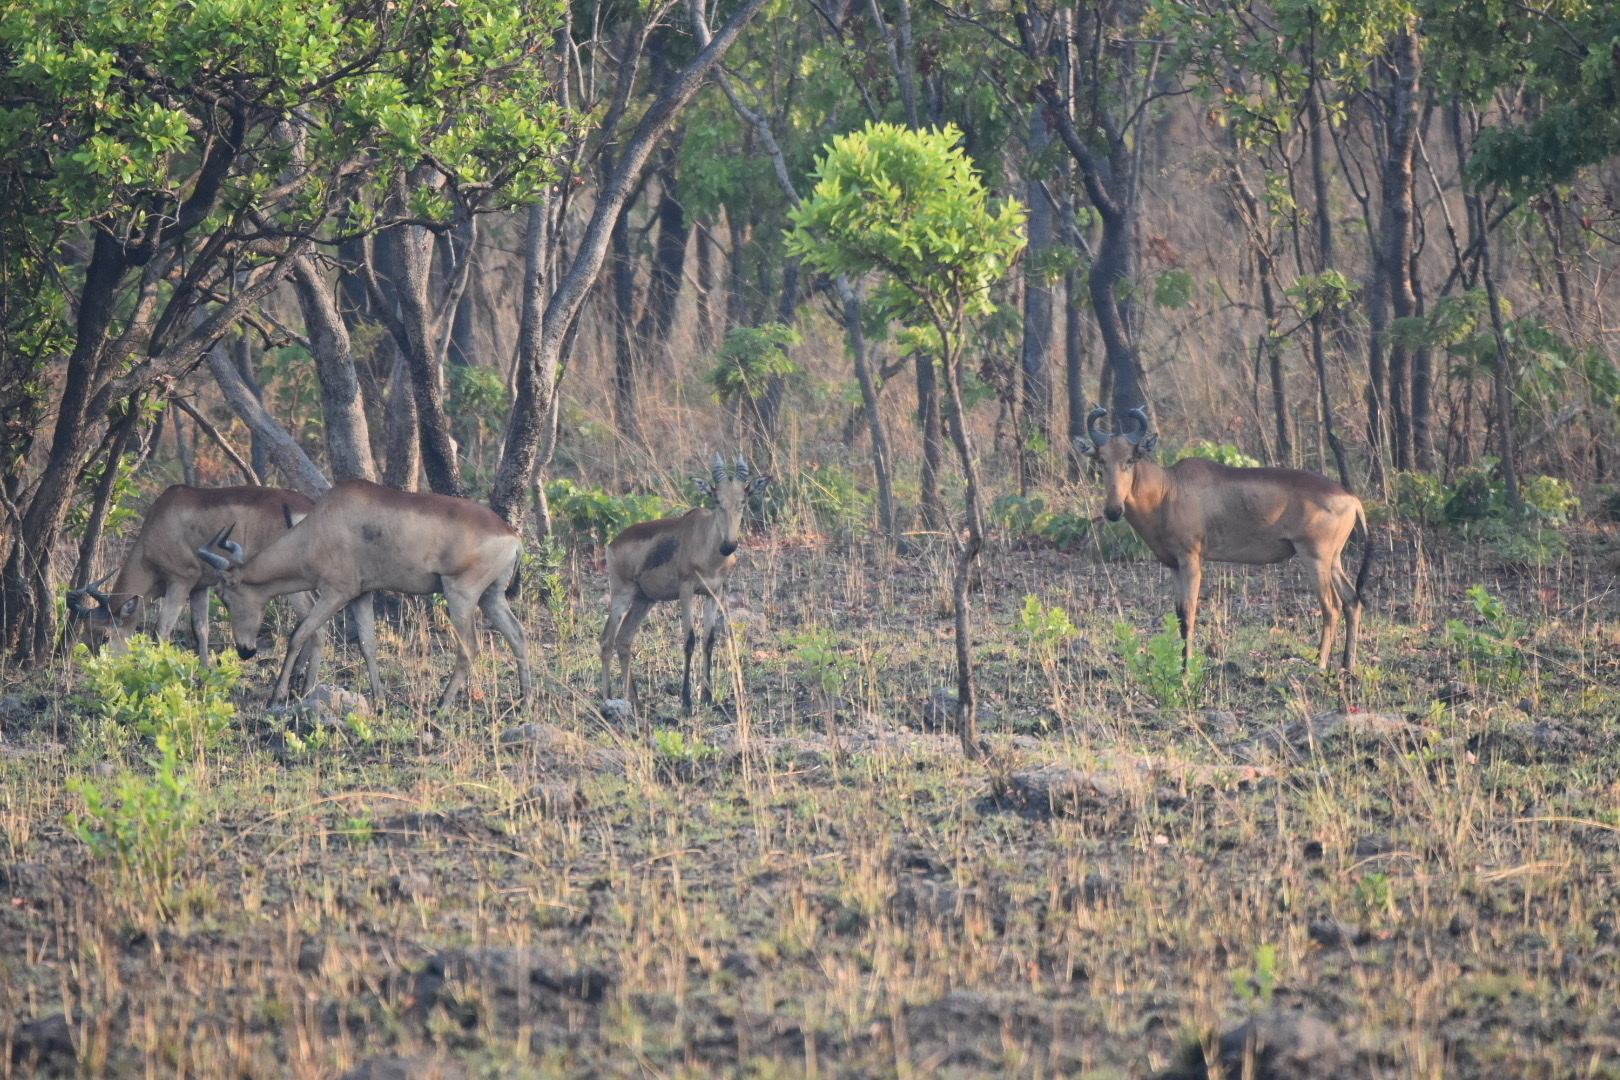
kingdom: Animalia
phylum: Chordata
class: Mammalia
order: Artiodactyla
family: Bovidae
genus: Alcelaphus
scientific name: Alcelaphus buselaphus
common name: Hartebeest
